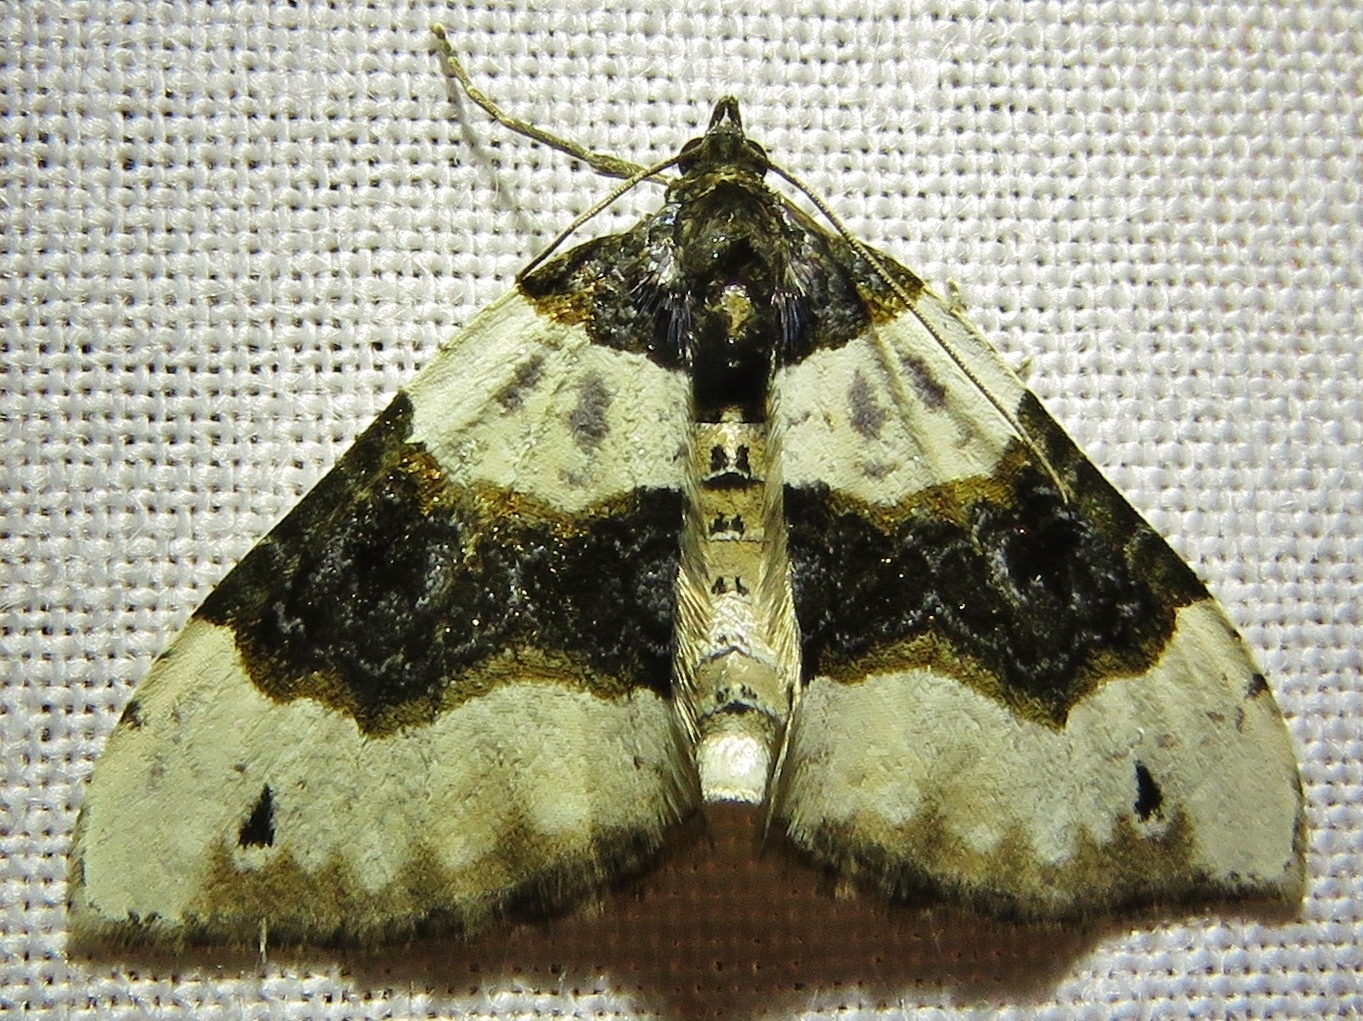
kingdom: Animalia
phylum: Arthropoda
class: Insecta
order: Lepidoptera
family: Geometridae
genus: Cosmorhoe
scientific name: Cosmorhoe ocellata
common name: Purple bar
